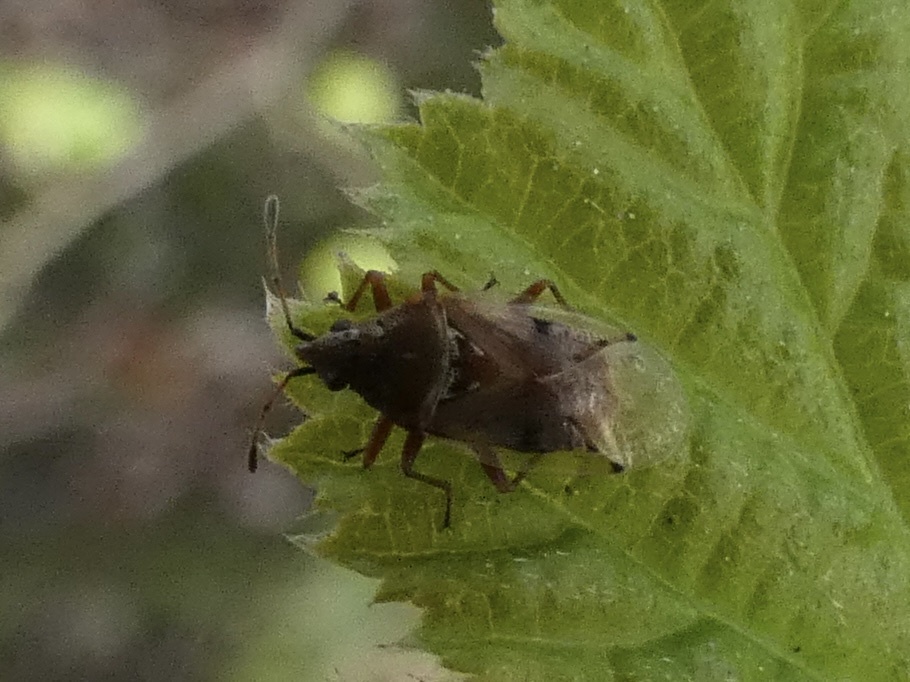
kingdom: Animalia
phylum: Arthropoda
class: Insecta
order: Hemiptera
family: Lygaeidae
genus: Kleidocerys
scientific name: Kleidocerys resedae
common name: Birch catkin bug
